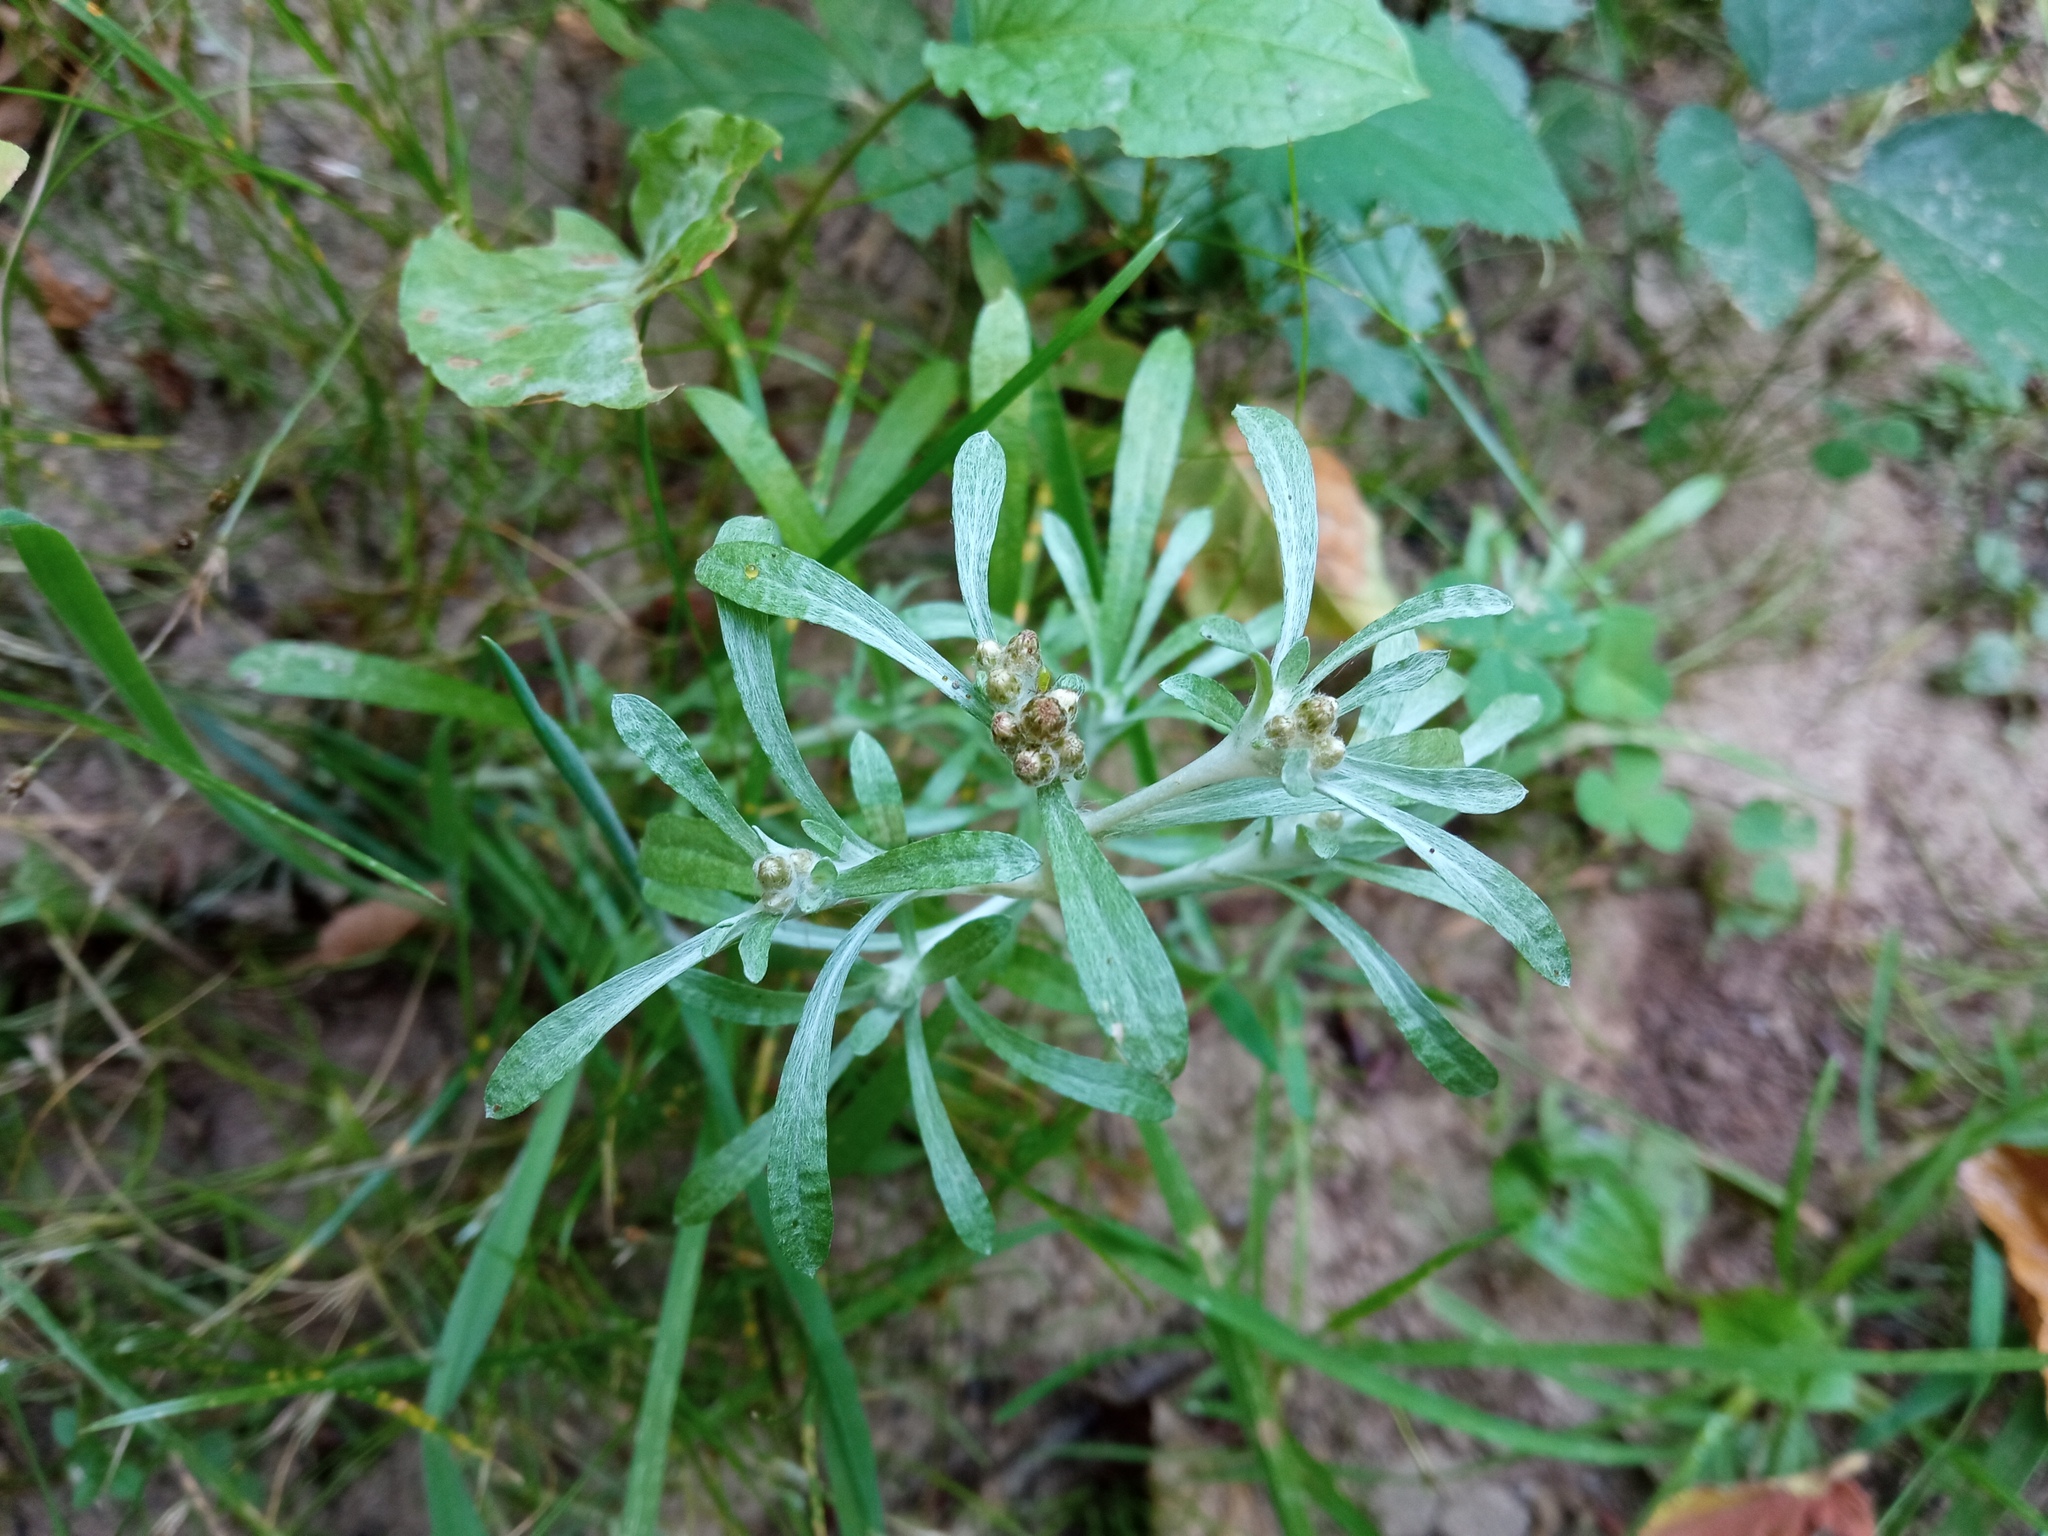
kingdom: Plantae
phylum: Tracheophyta
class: Magnoliopsida
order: Asterales
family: Asteraceae
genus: Gnaphalium
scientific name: Gnaphalium uliginosum
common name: Marsh cudweed
